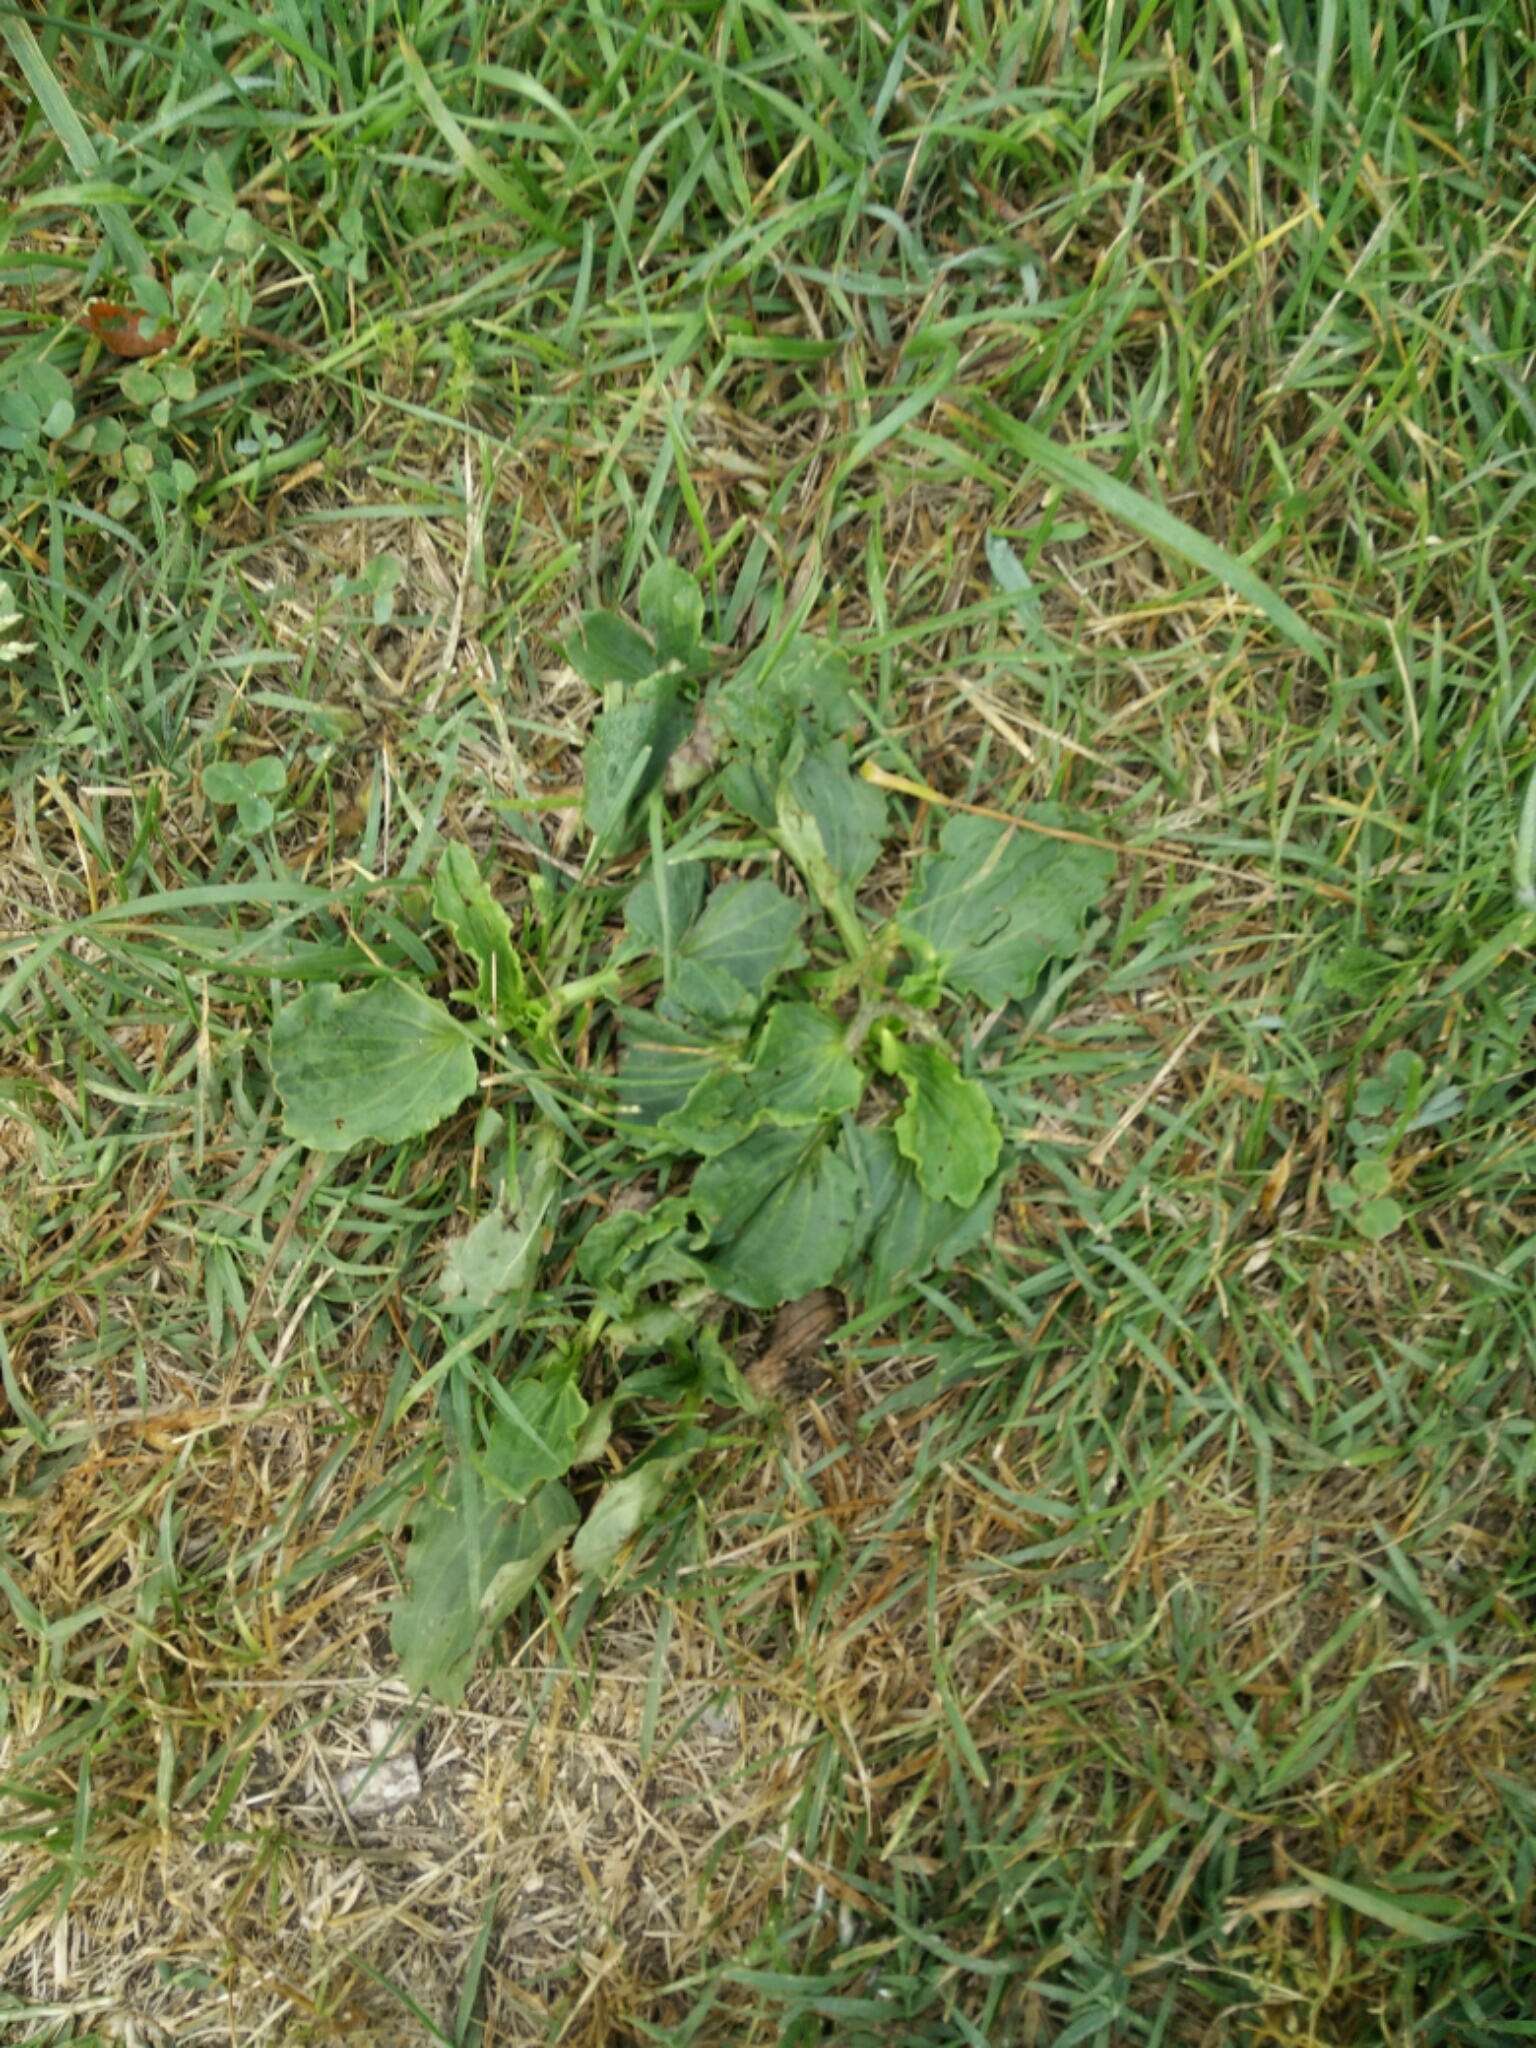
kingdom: Plantae
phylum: Tracheophyta
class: Magnoliopsida
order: Lamiales
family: Plantaginaceae
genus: Plantago
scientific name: Plantago major
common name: Common plantain
